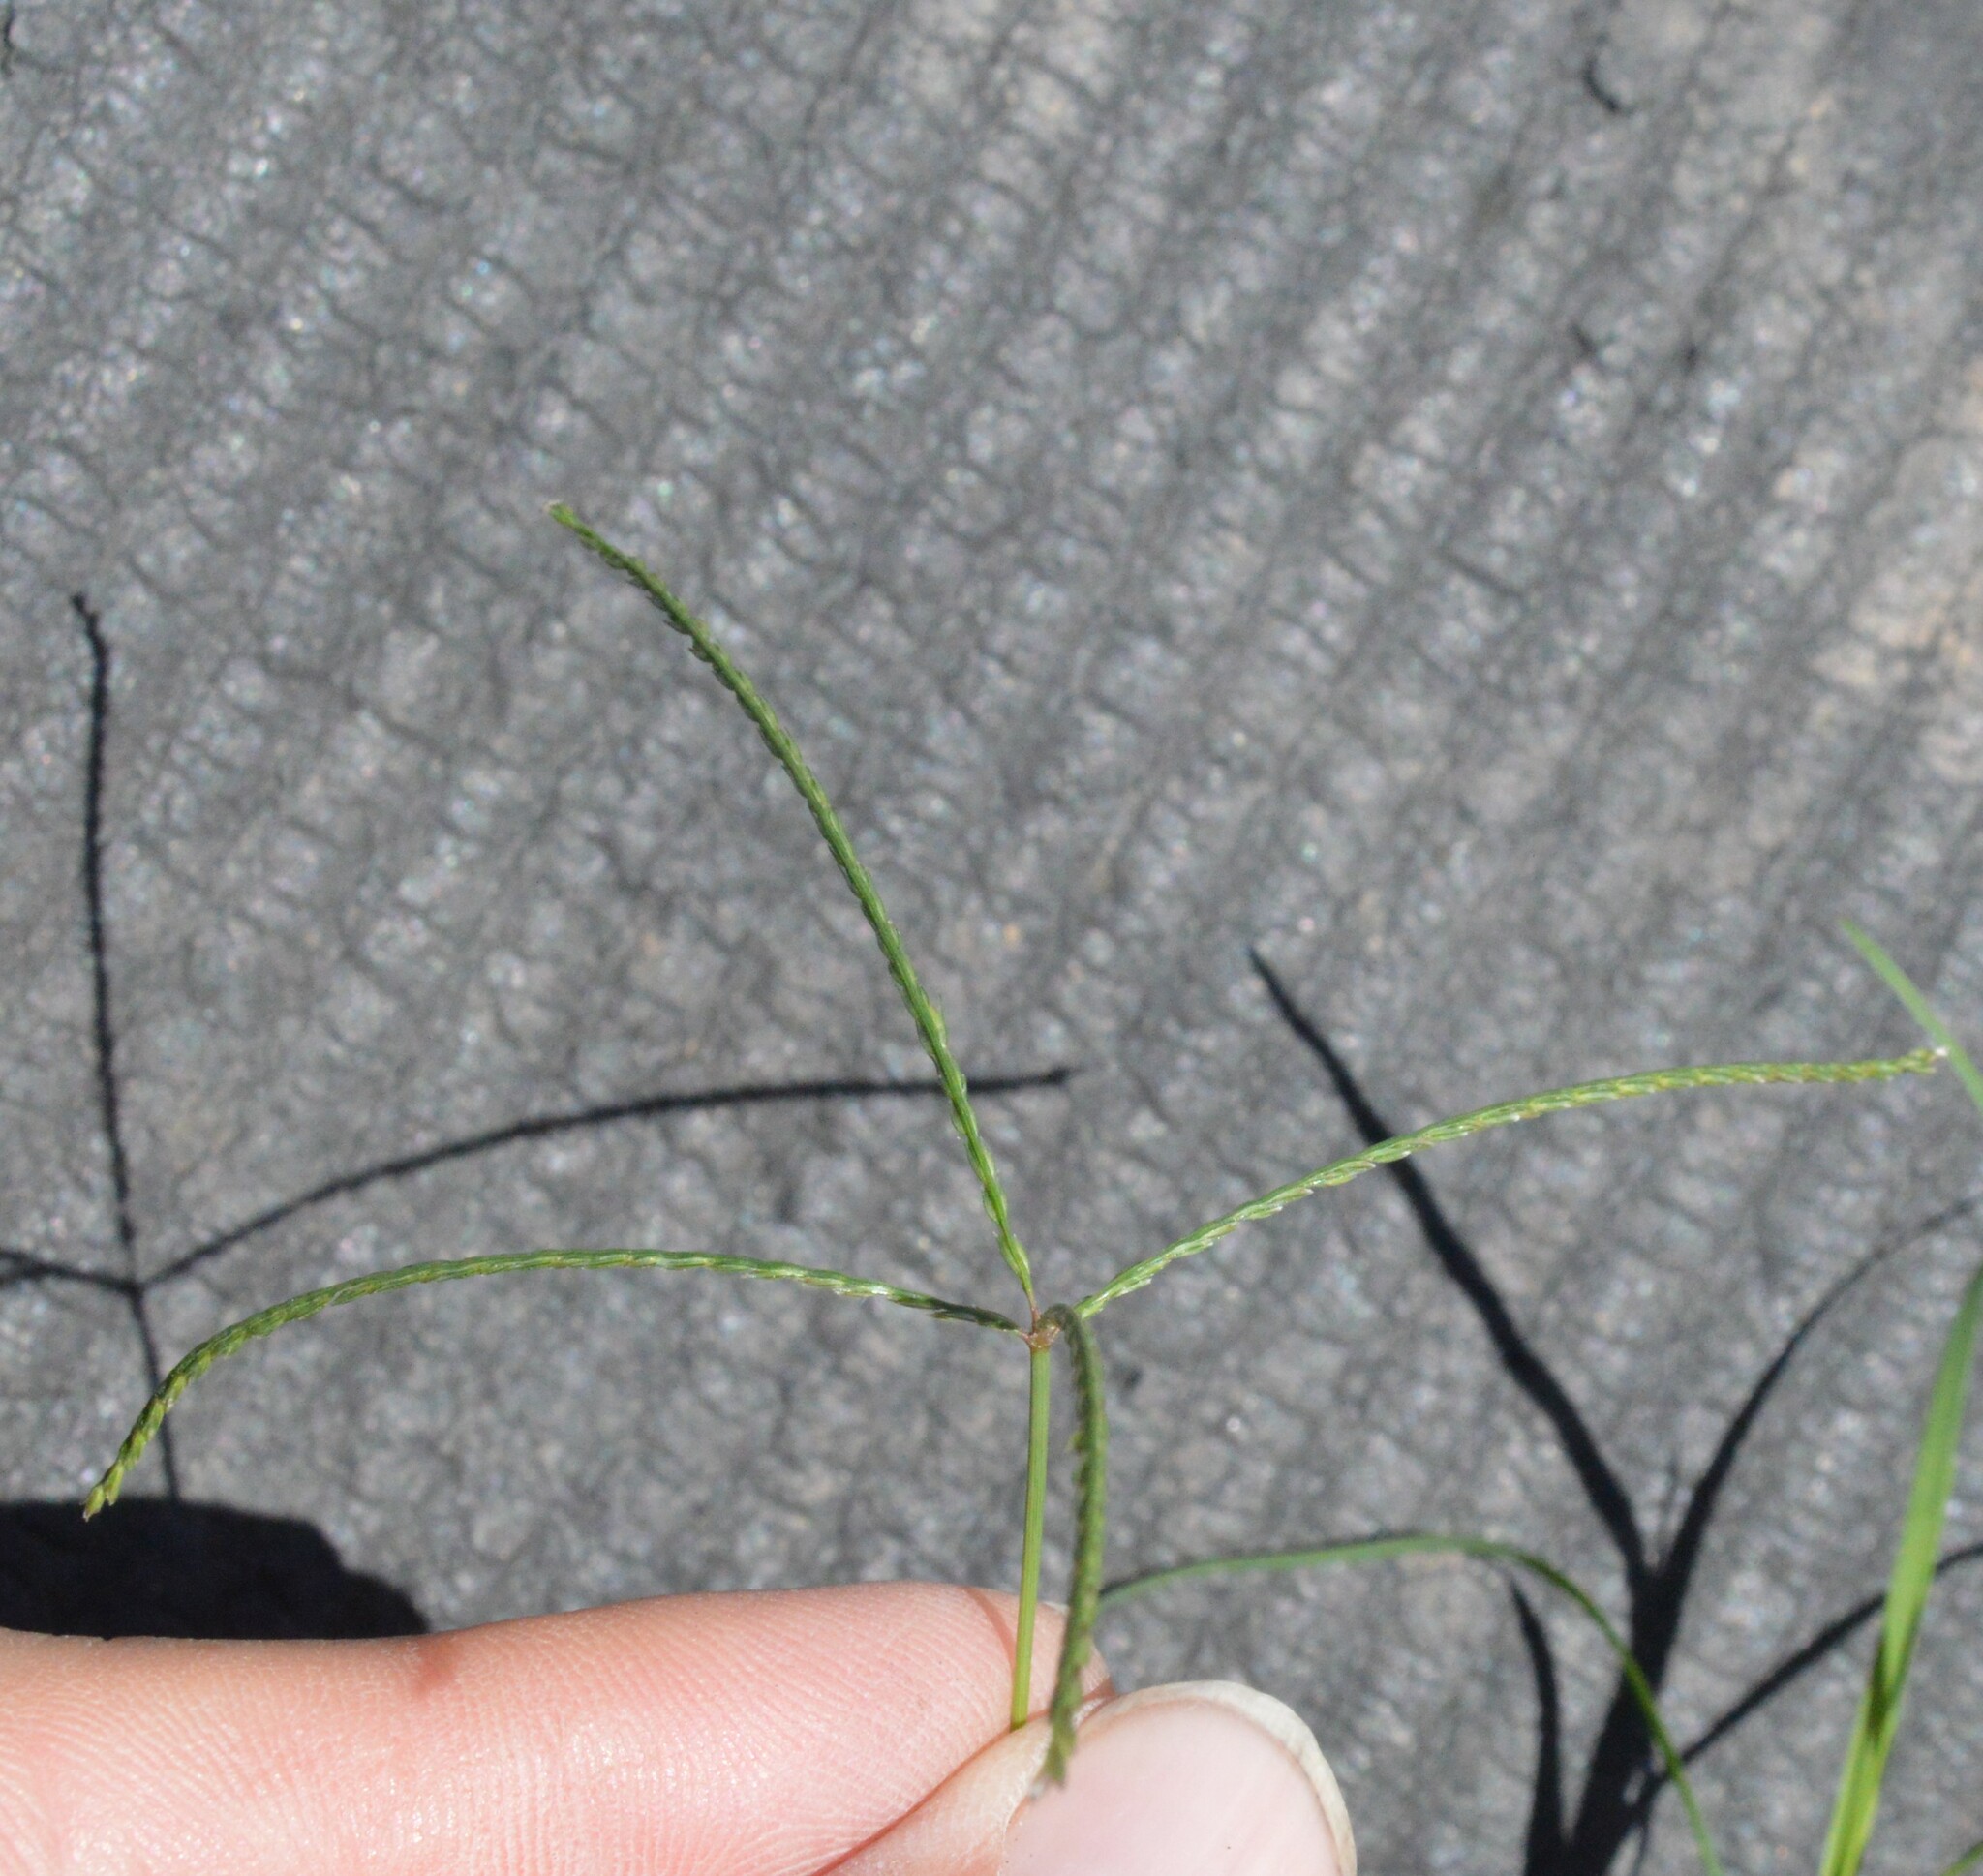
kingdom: Plantae
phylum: Tracheophyta
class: Liliopsida
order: Poales
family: Poaceae
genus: Cynodon
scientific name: Cynodon dactylon
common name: Bermuda grass
